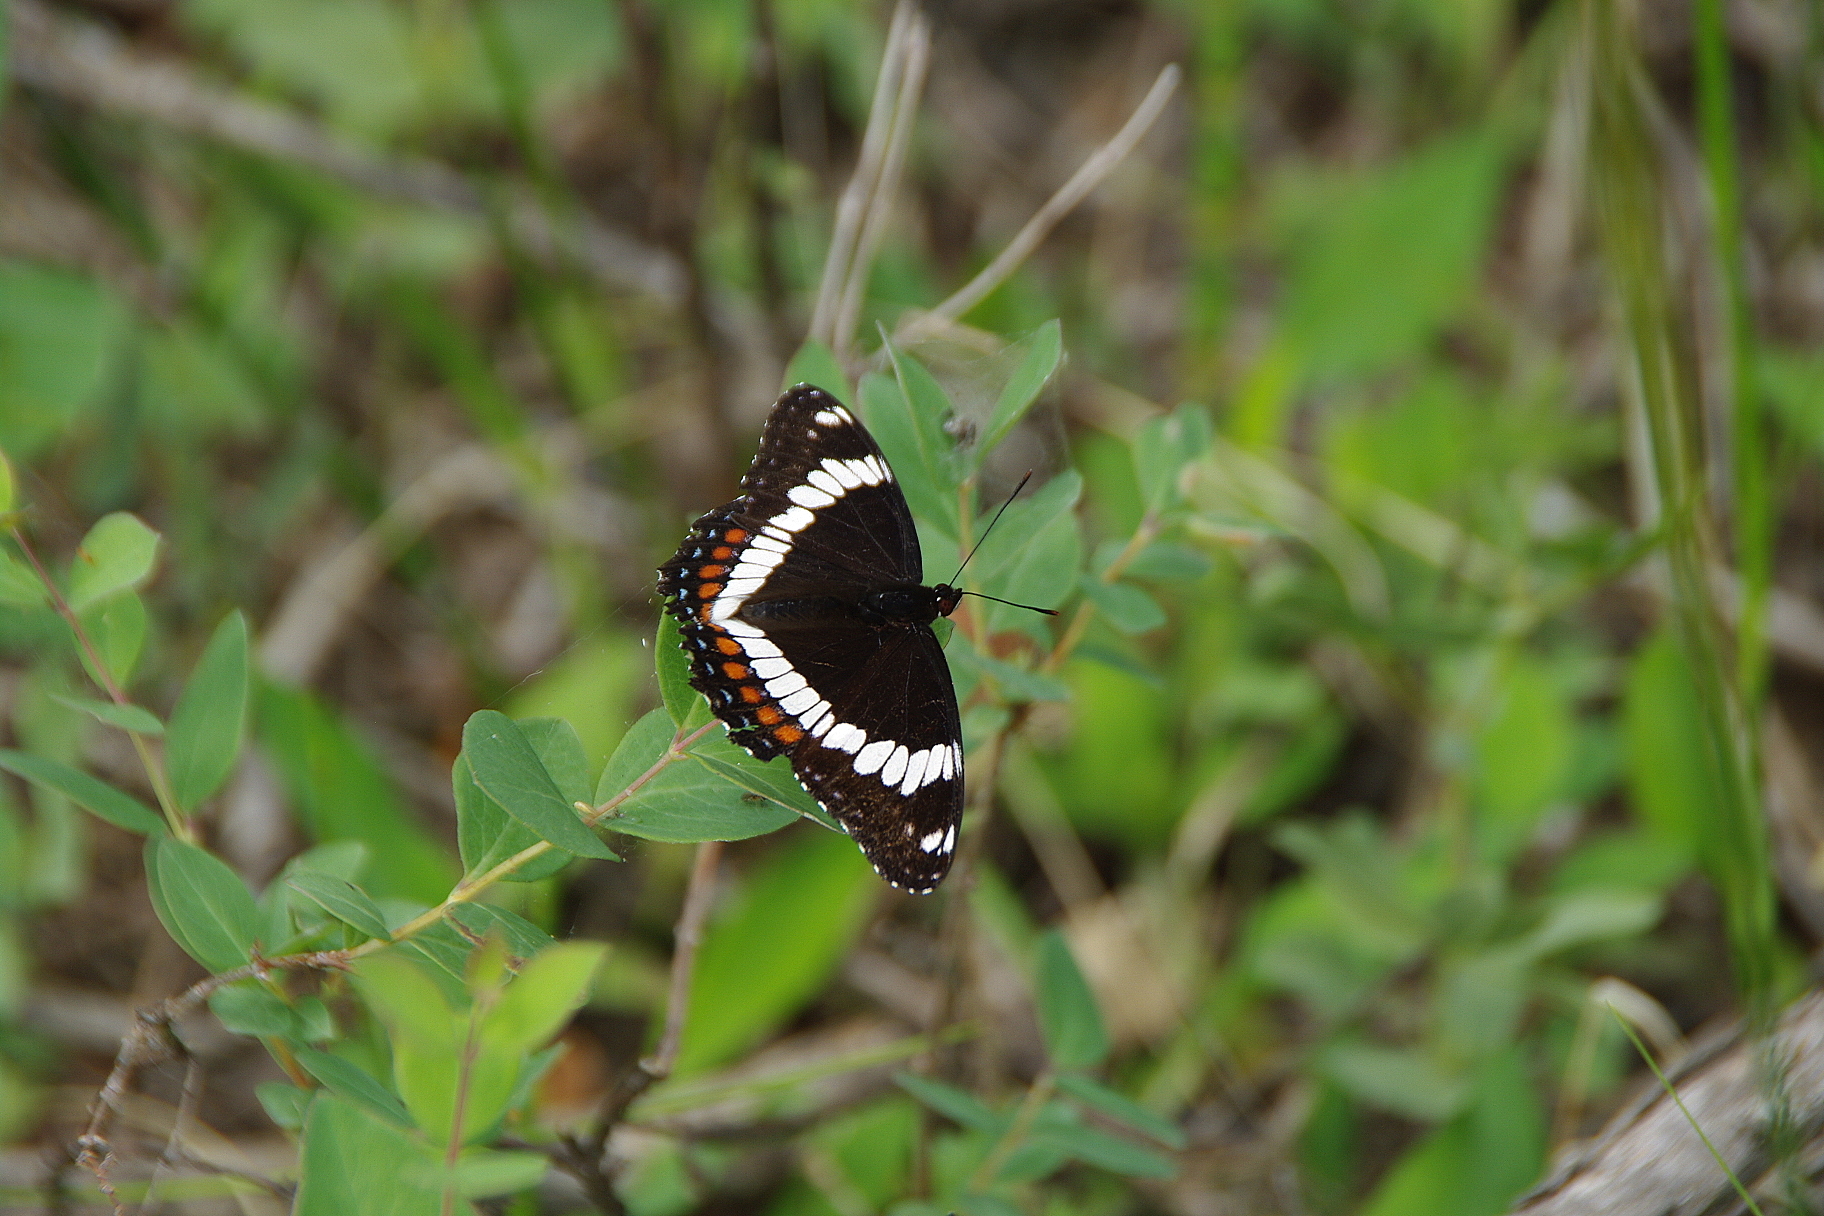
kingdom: Animalia
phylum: Arthropoda
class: Insecta
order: Lepidoptera
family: Nymphalidae
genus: Limenitis
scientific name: Limenitis arthemis
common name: Red-spotted admiral
